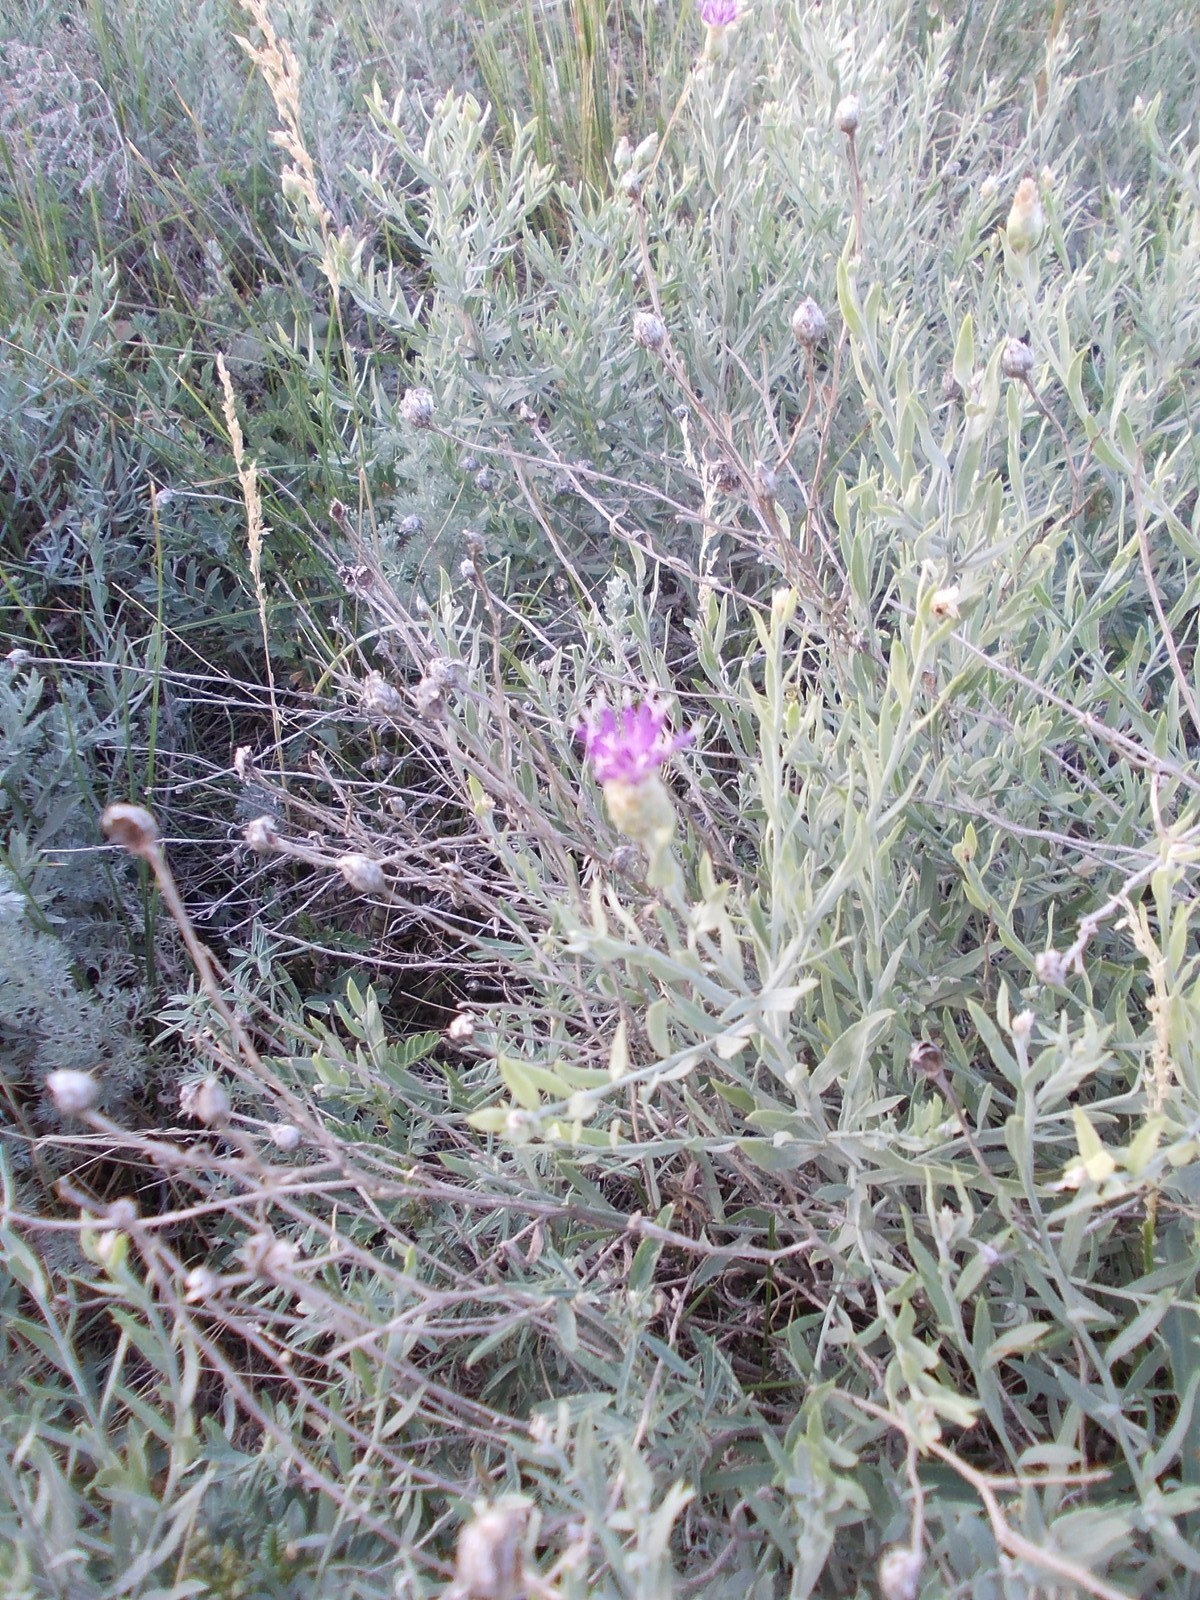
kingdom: Plantae
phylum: Tracheophyta
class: Magnoliopsida
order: Asterales
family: Asteraceae
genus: Leuzea
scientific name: Leuzea repens
